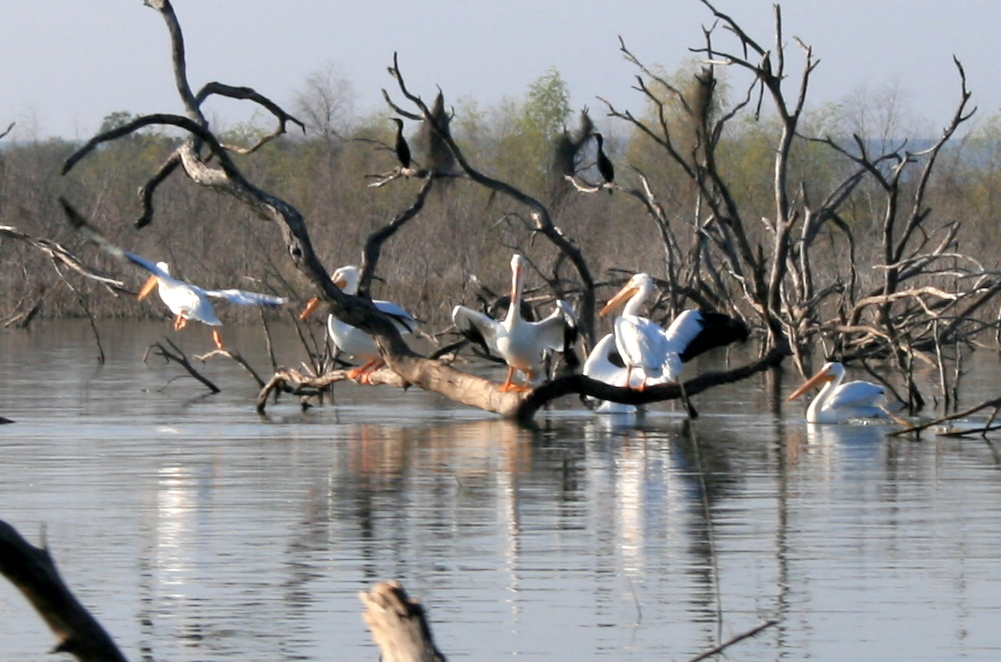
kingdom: Animalia
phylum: Chordata
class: Aves
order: Pelecaniformes
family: Pelecanidae
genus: Pelecanus
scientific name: Pelecanus erythrorhynchos
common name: American white pelican
